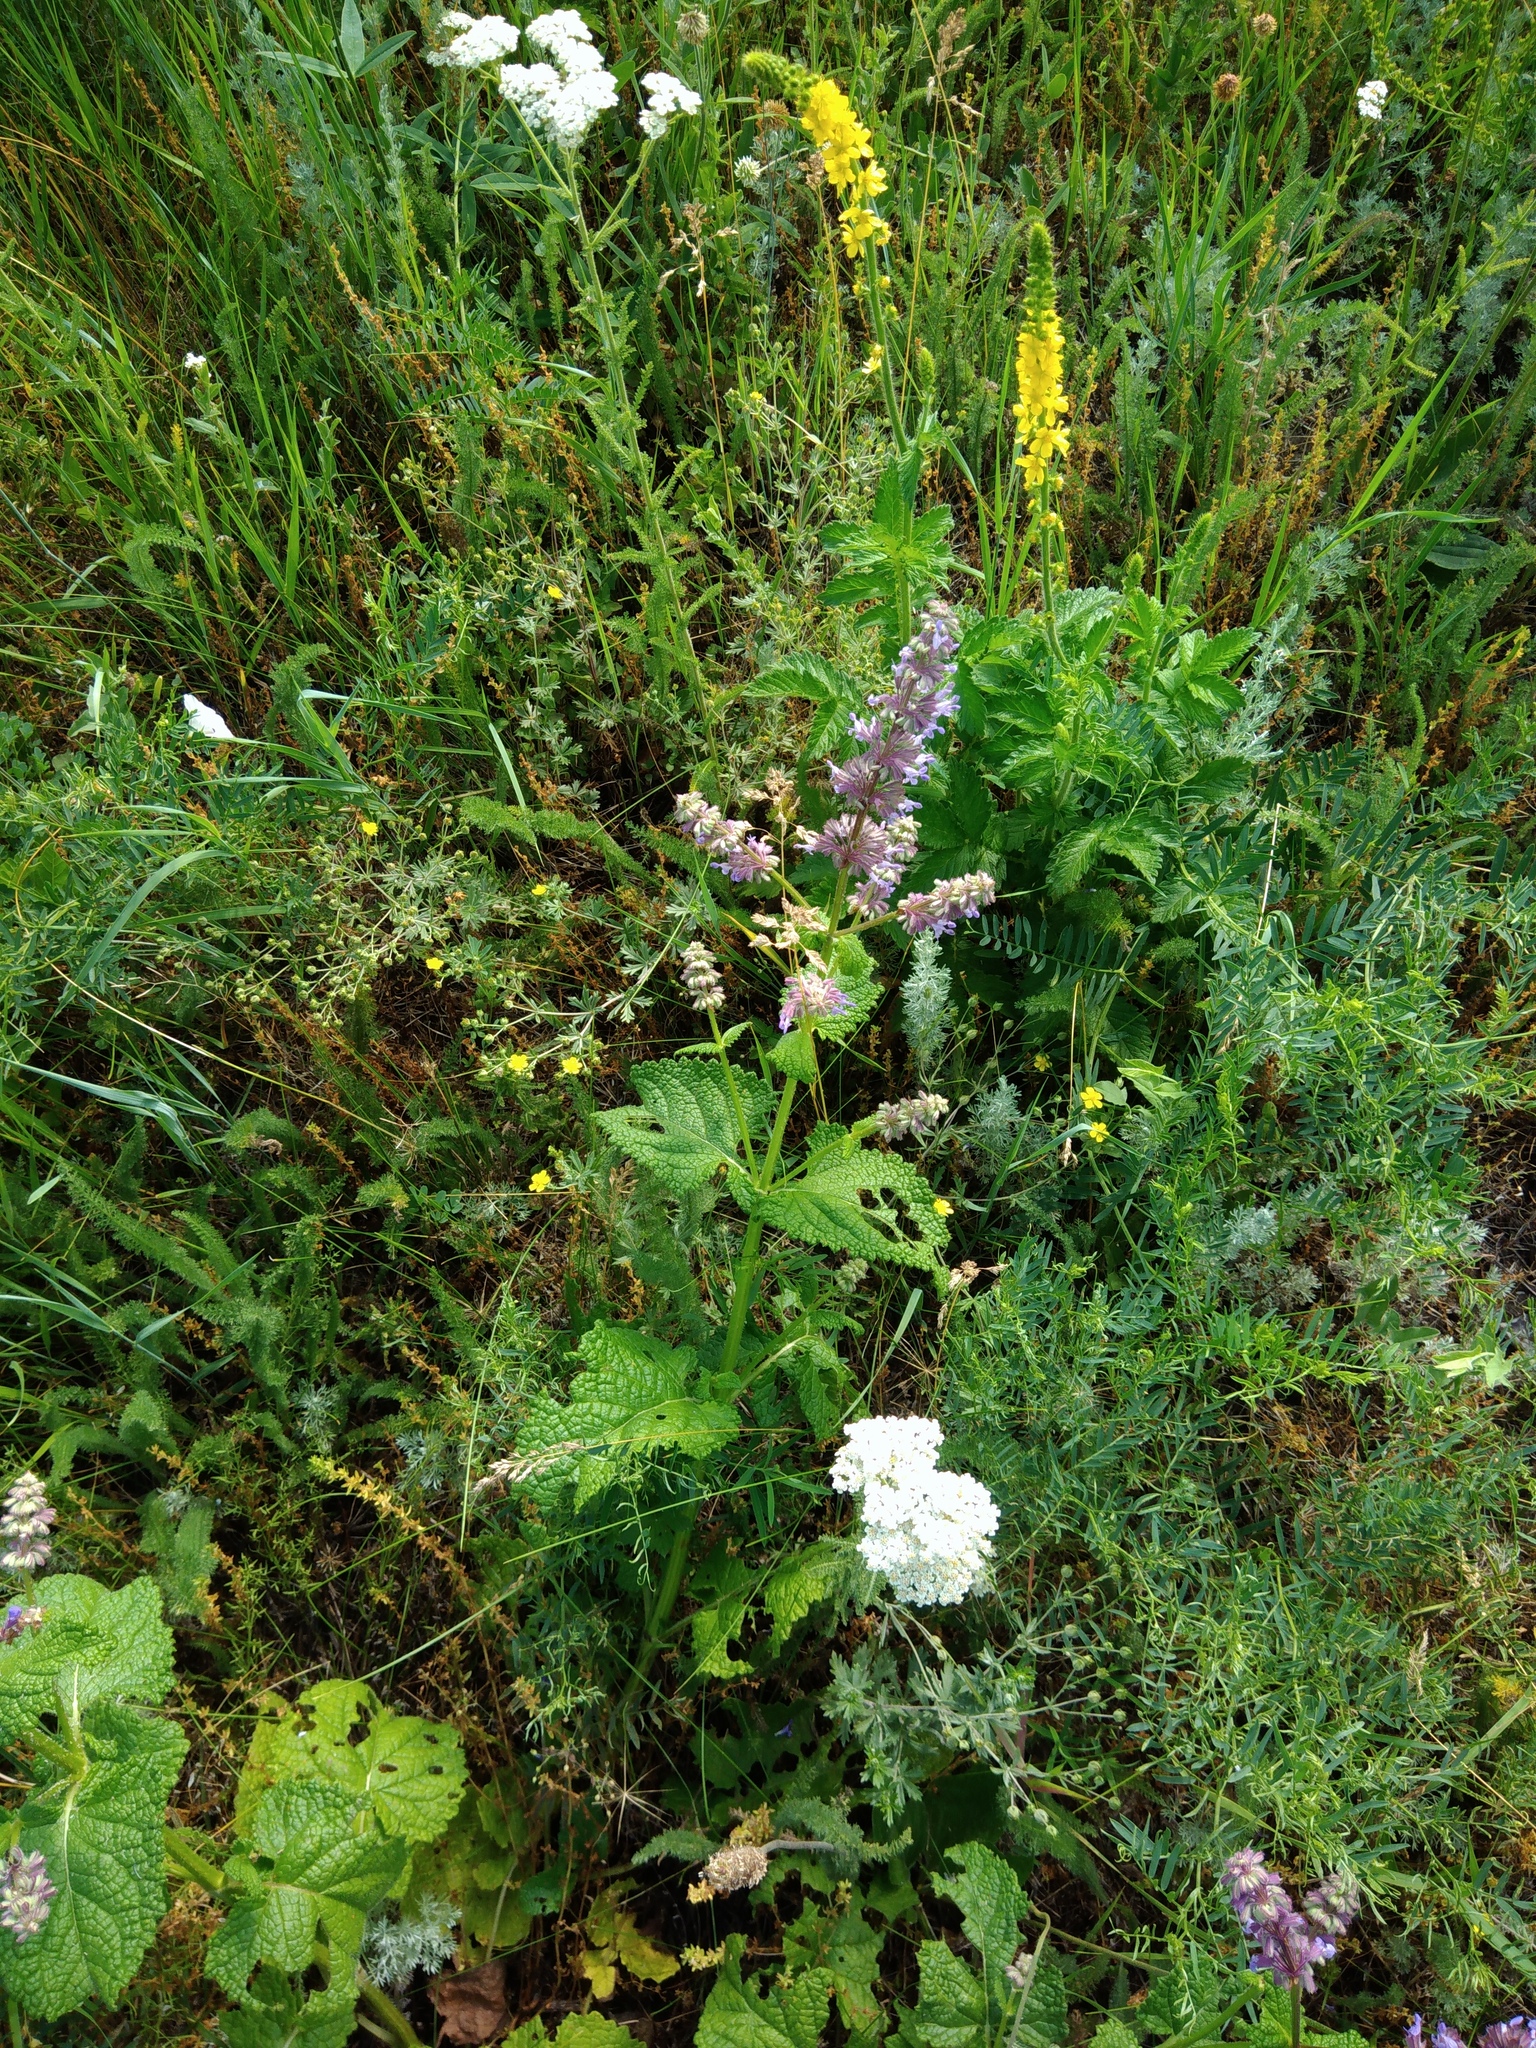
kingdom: Plantae
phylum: Tracheophyta
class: Magnoliopsida
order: Lamiales
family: Lamiaceae
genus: Salvia
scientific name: Salvia verticillata
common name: Whorled clary
